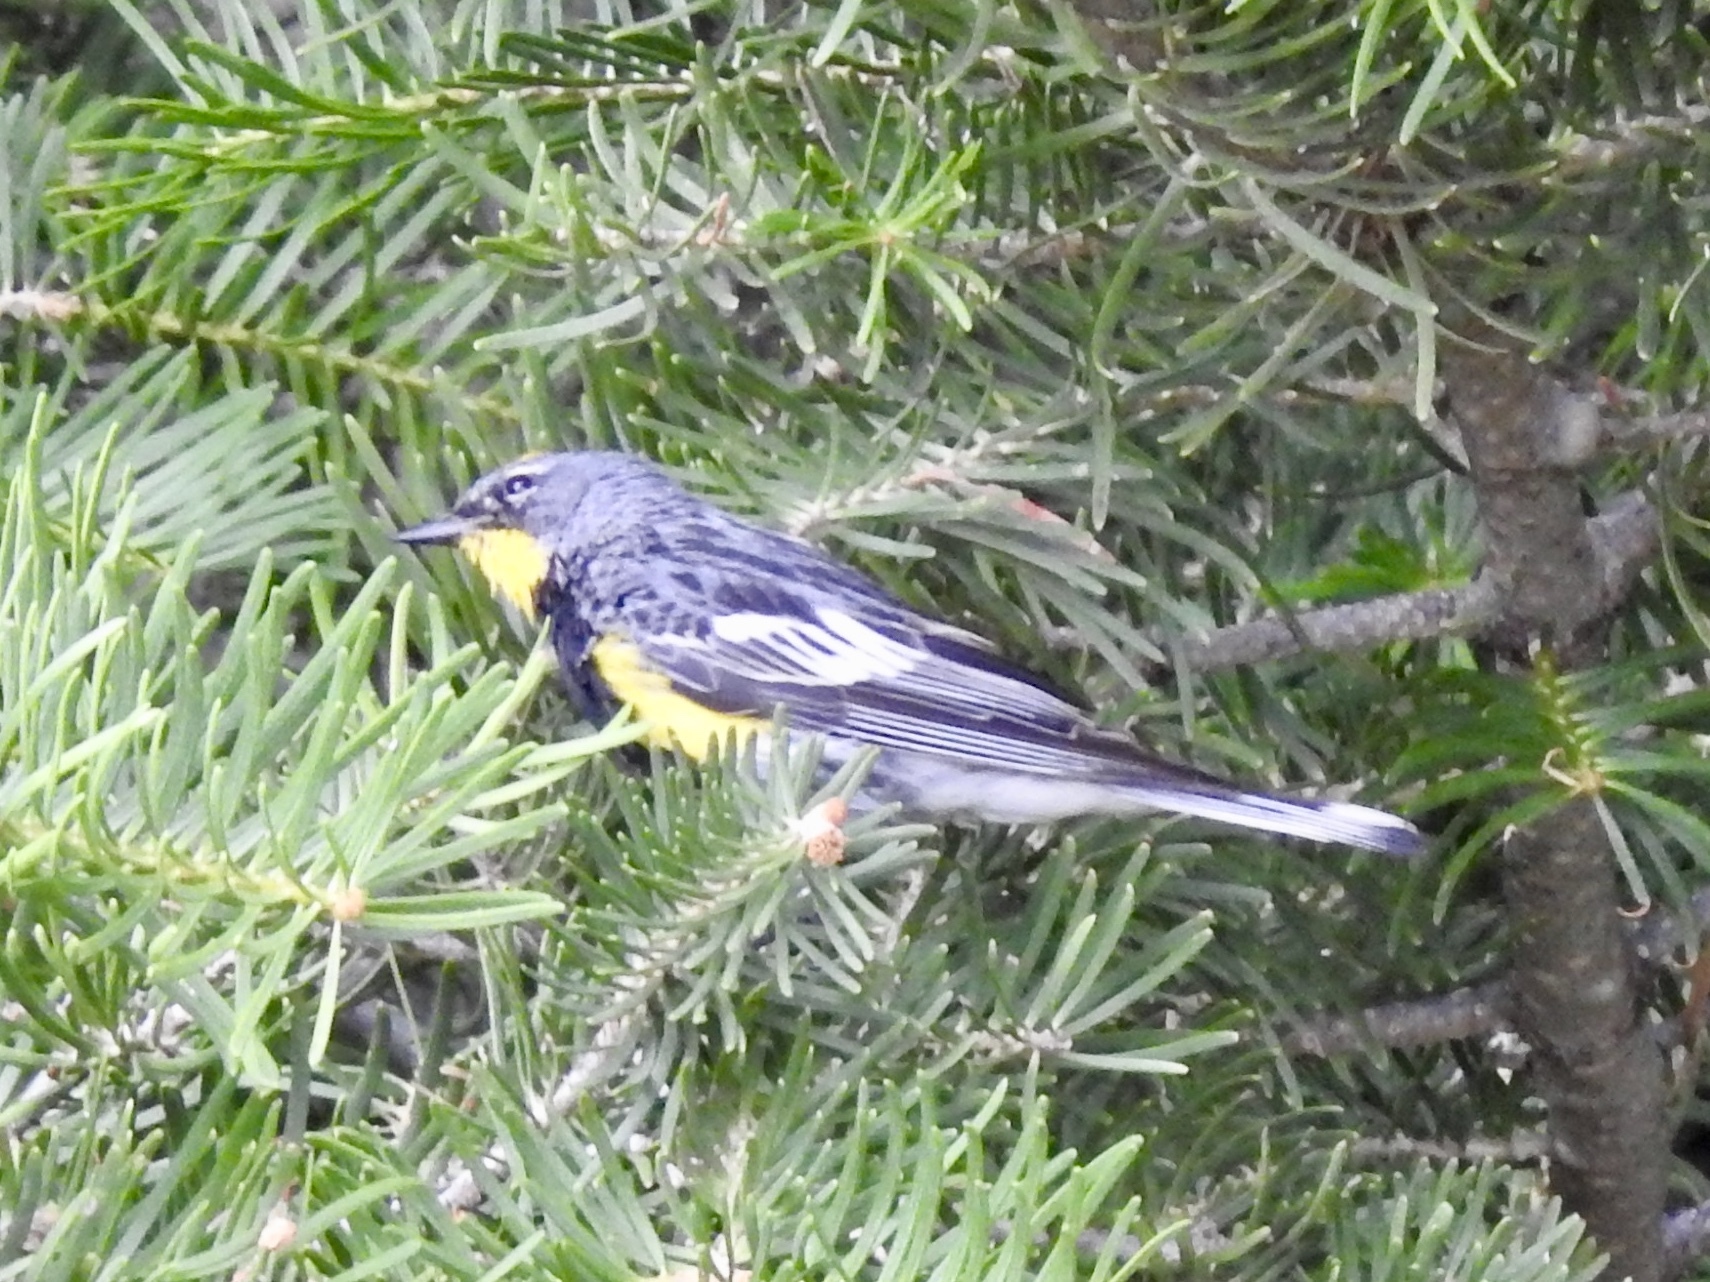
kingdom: Animalia
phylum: Chordata
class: Aves
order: Passeriformes
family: Parulidae
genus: Setophaga
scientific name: Setophaga coronata
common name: Myrtle warbler
